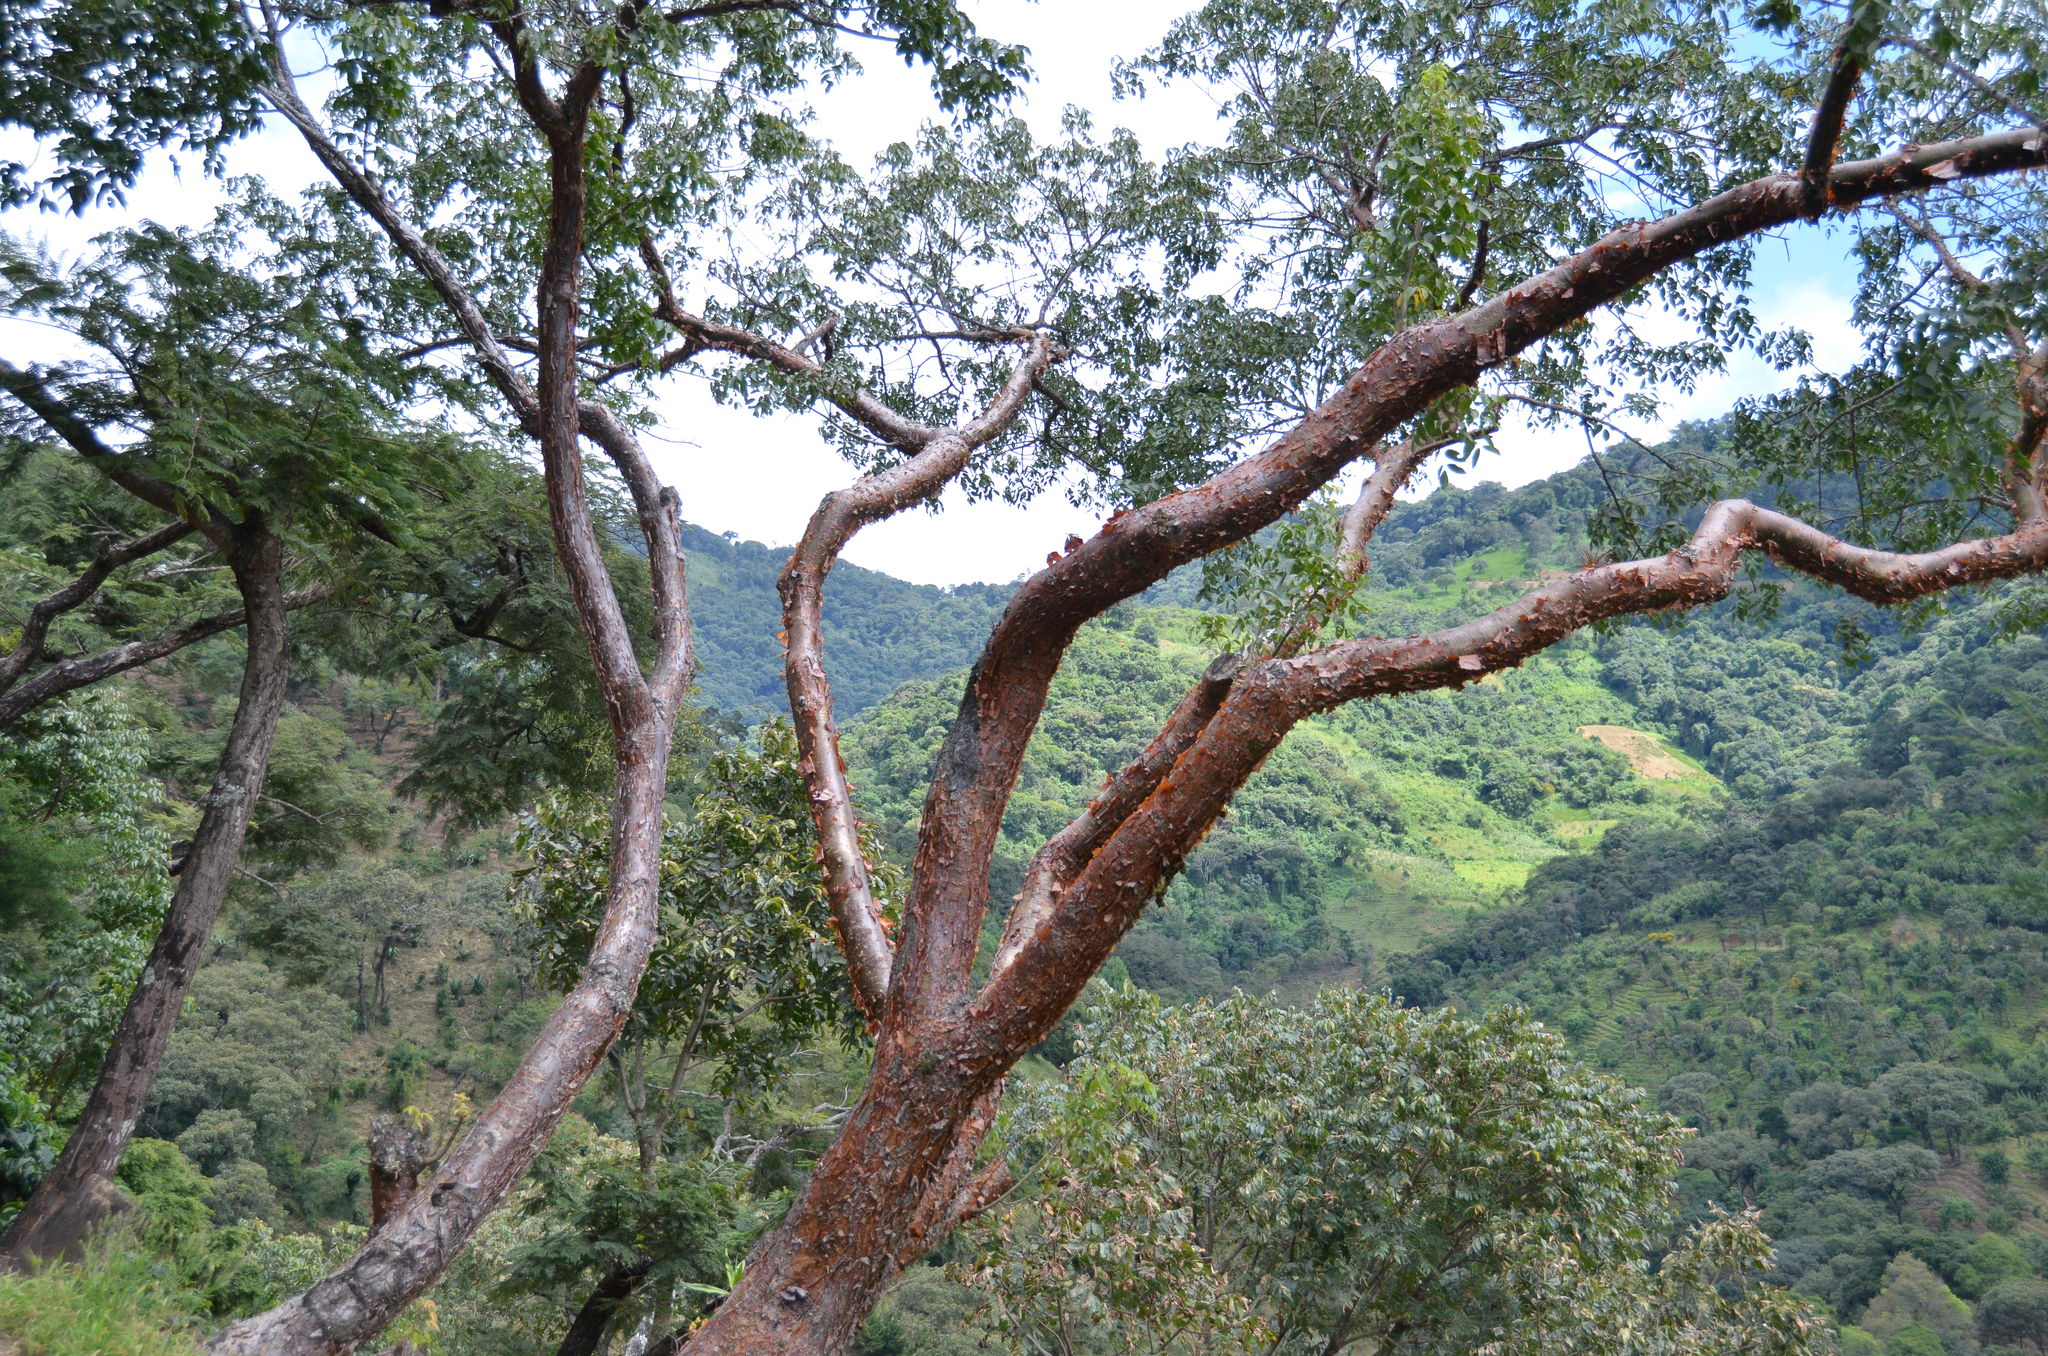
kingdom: Plantae
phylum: Tracheophyta
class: Magnoliopsida
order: Sapindales
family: Burseraceae
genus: Bursera
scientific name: Bursera simaruba
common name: Turpentine tree
